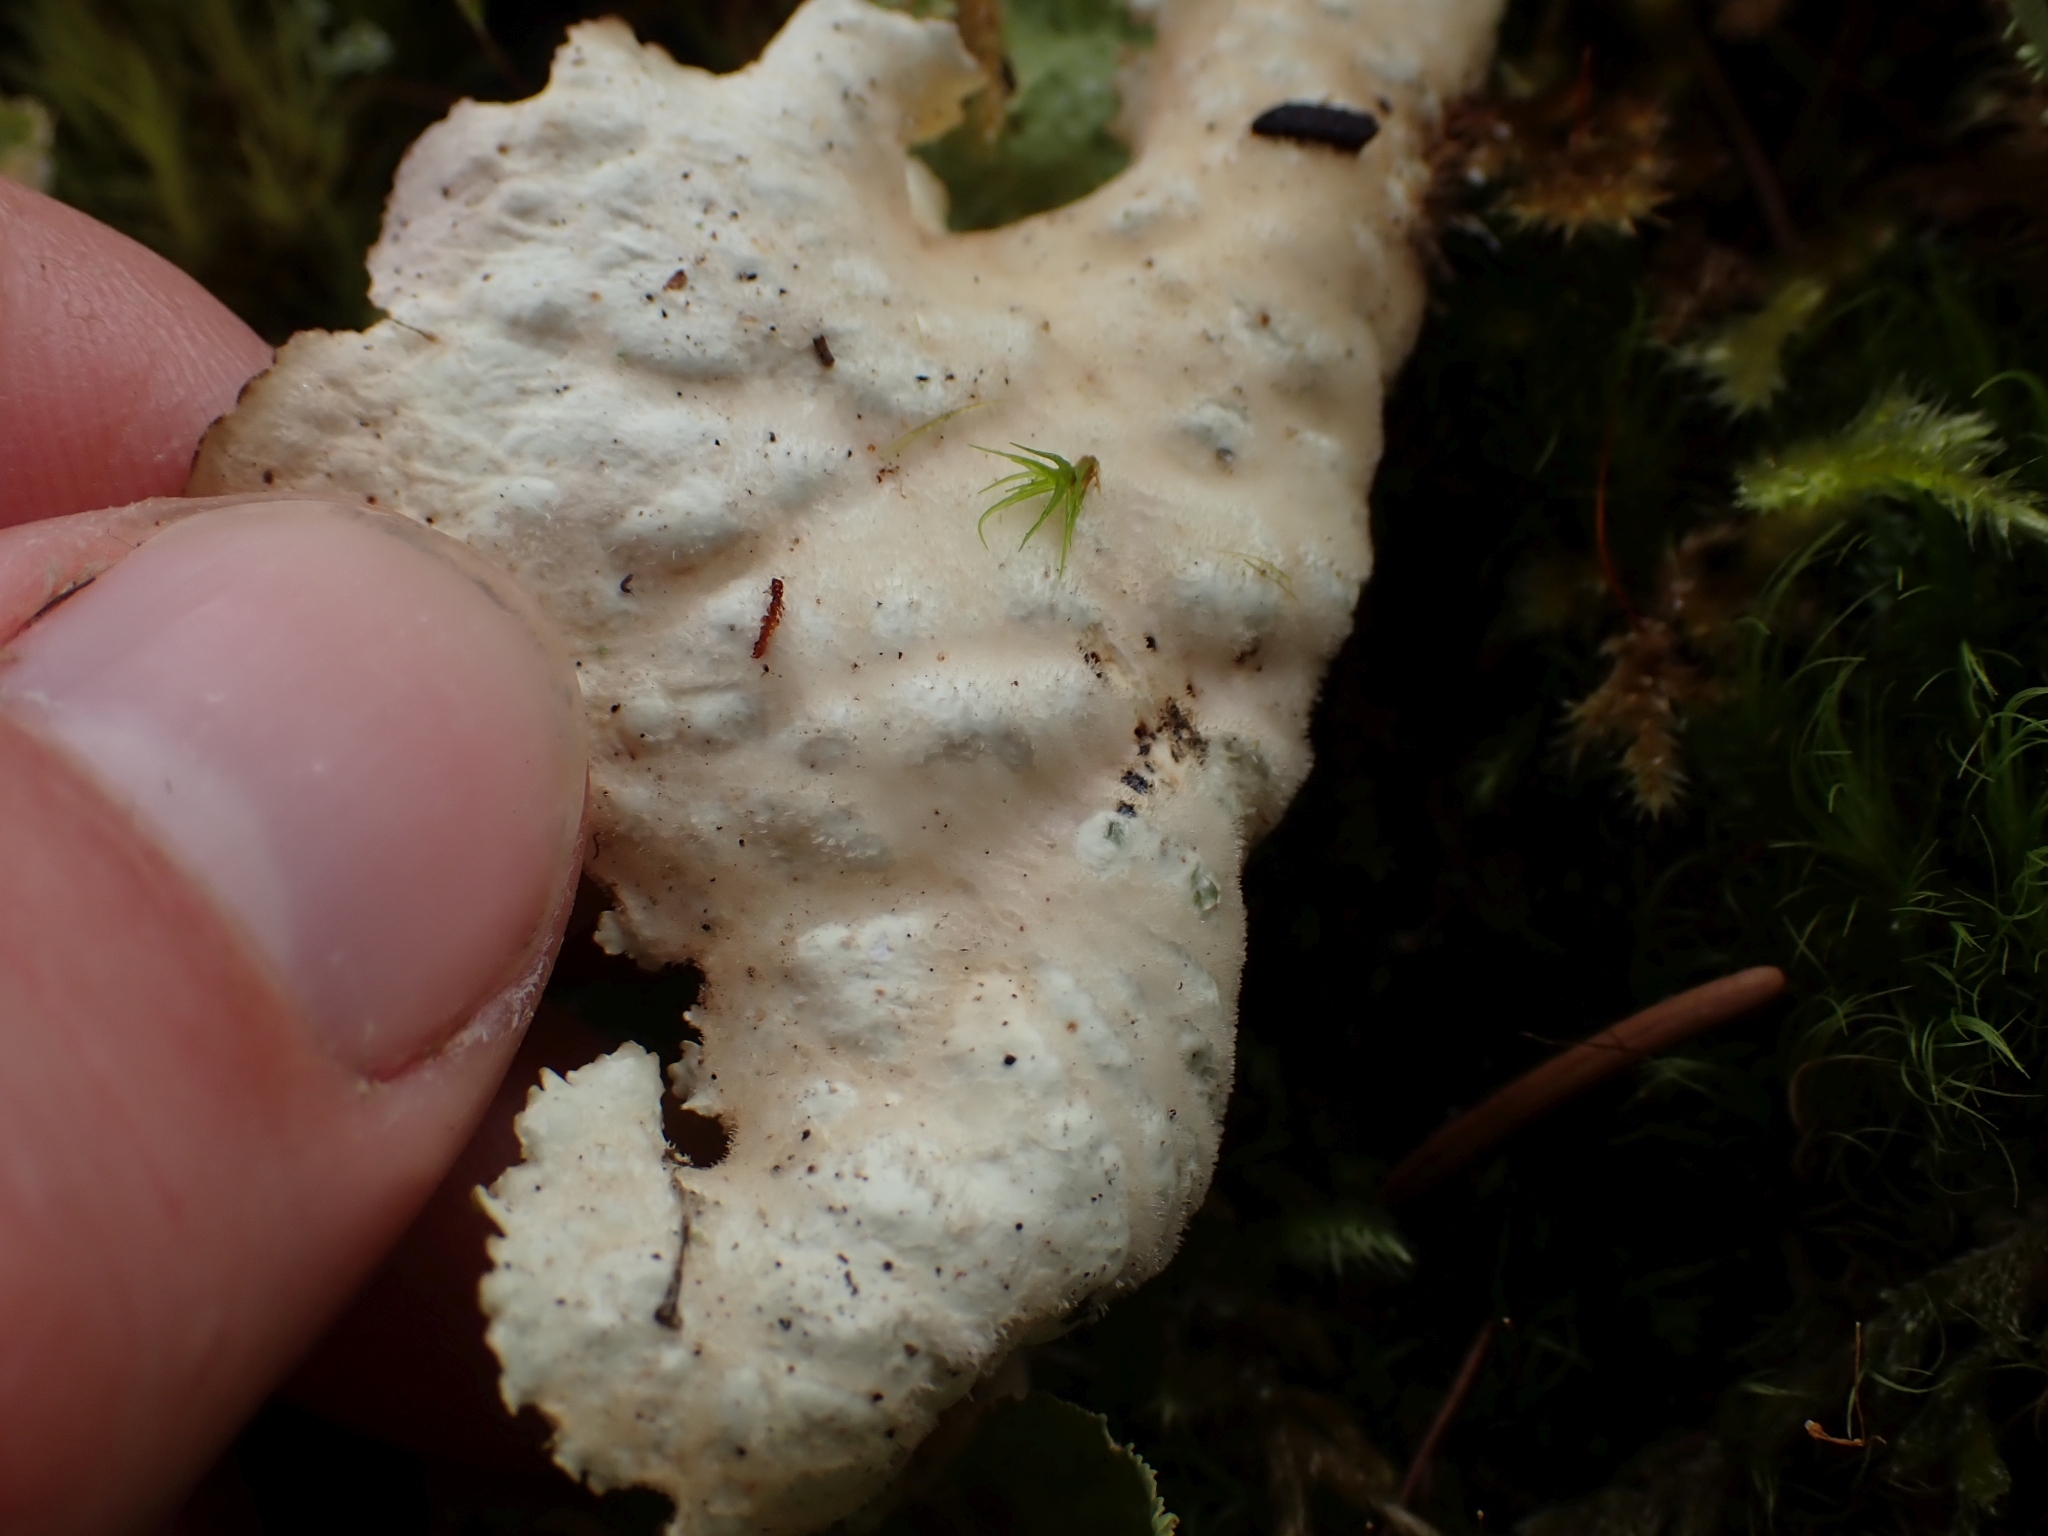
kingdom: Fungi
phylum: Ascomycota
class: Lecanoromycetes
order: Peltigerales
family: Lobariaceae
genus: Lobaria
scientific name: Lobaria oregana
